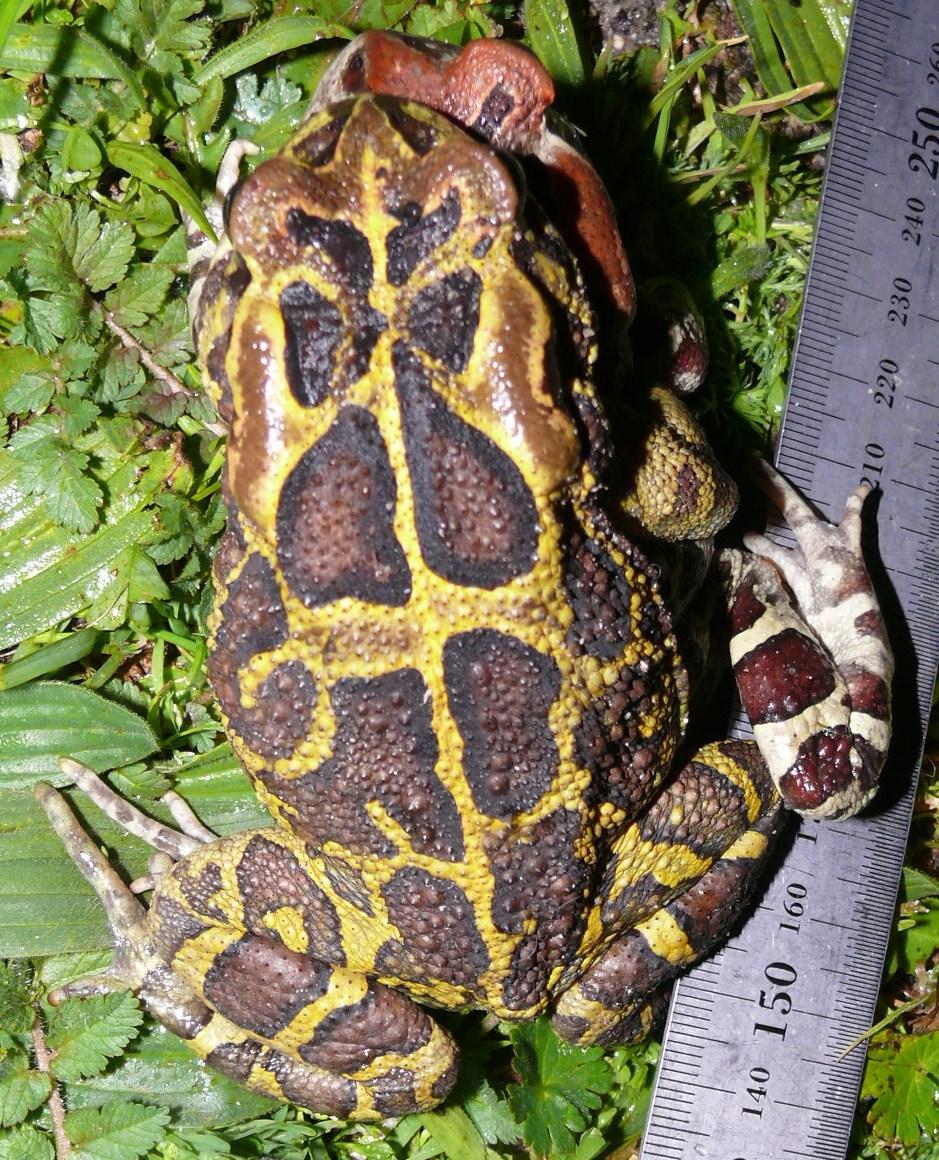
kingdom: Animalia
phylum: Chordata
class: Amphibia
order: Anura
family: Bufonidae
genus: Sclerophrys
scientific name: Sclerophrys pantherina
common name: Panther toad
